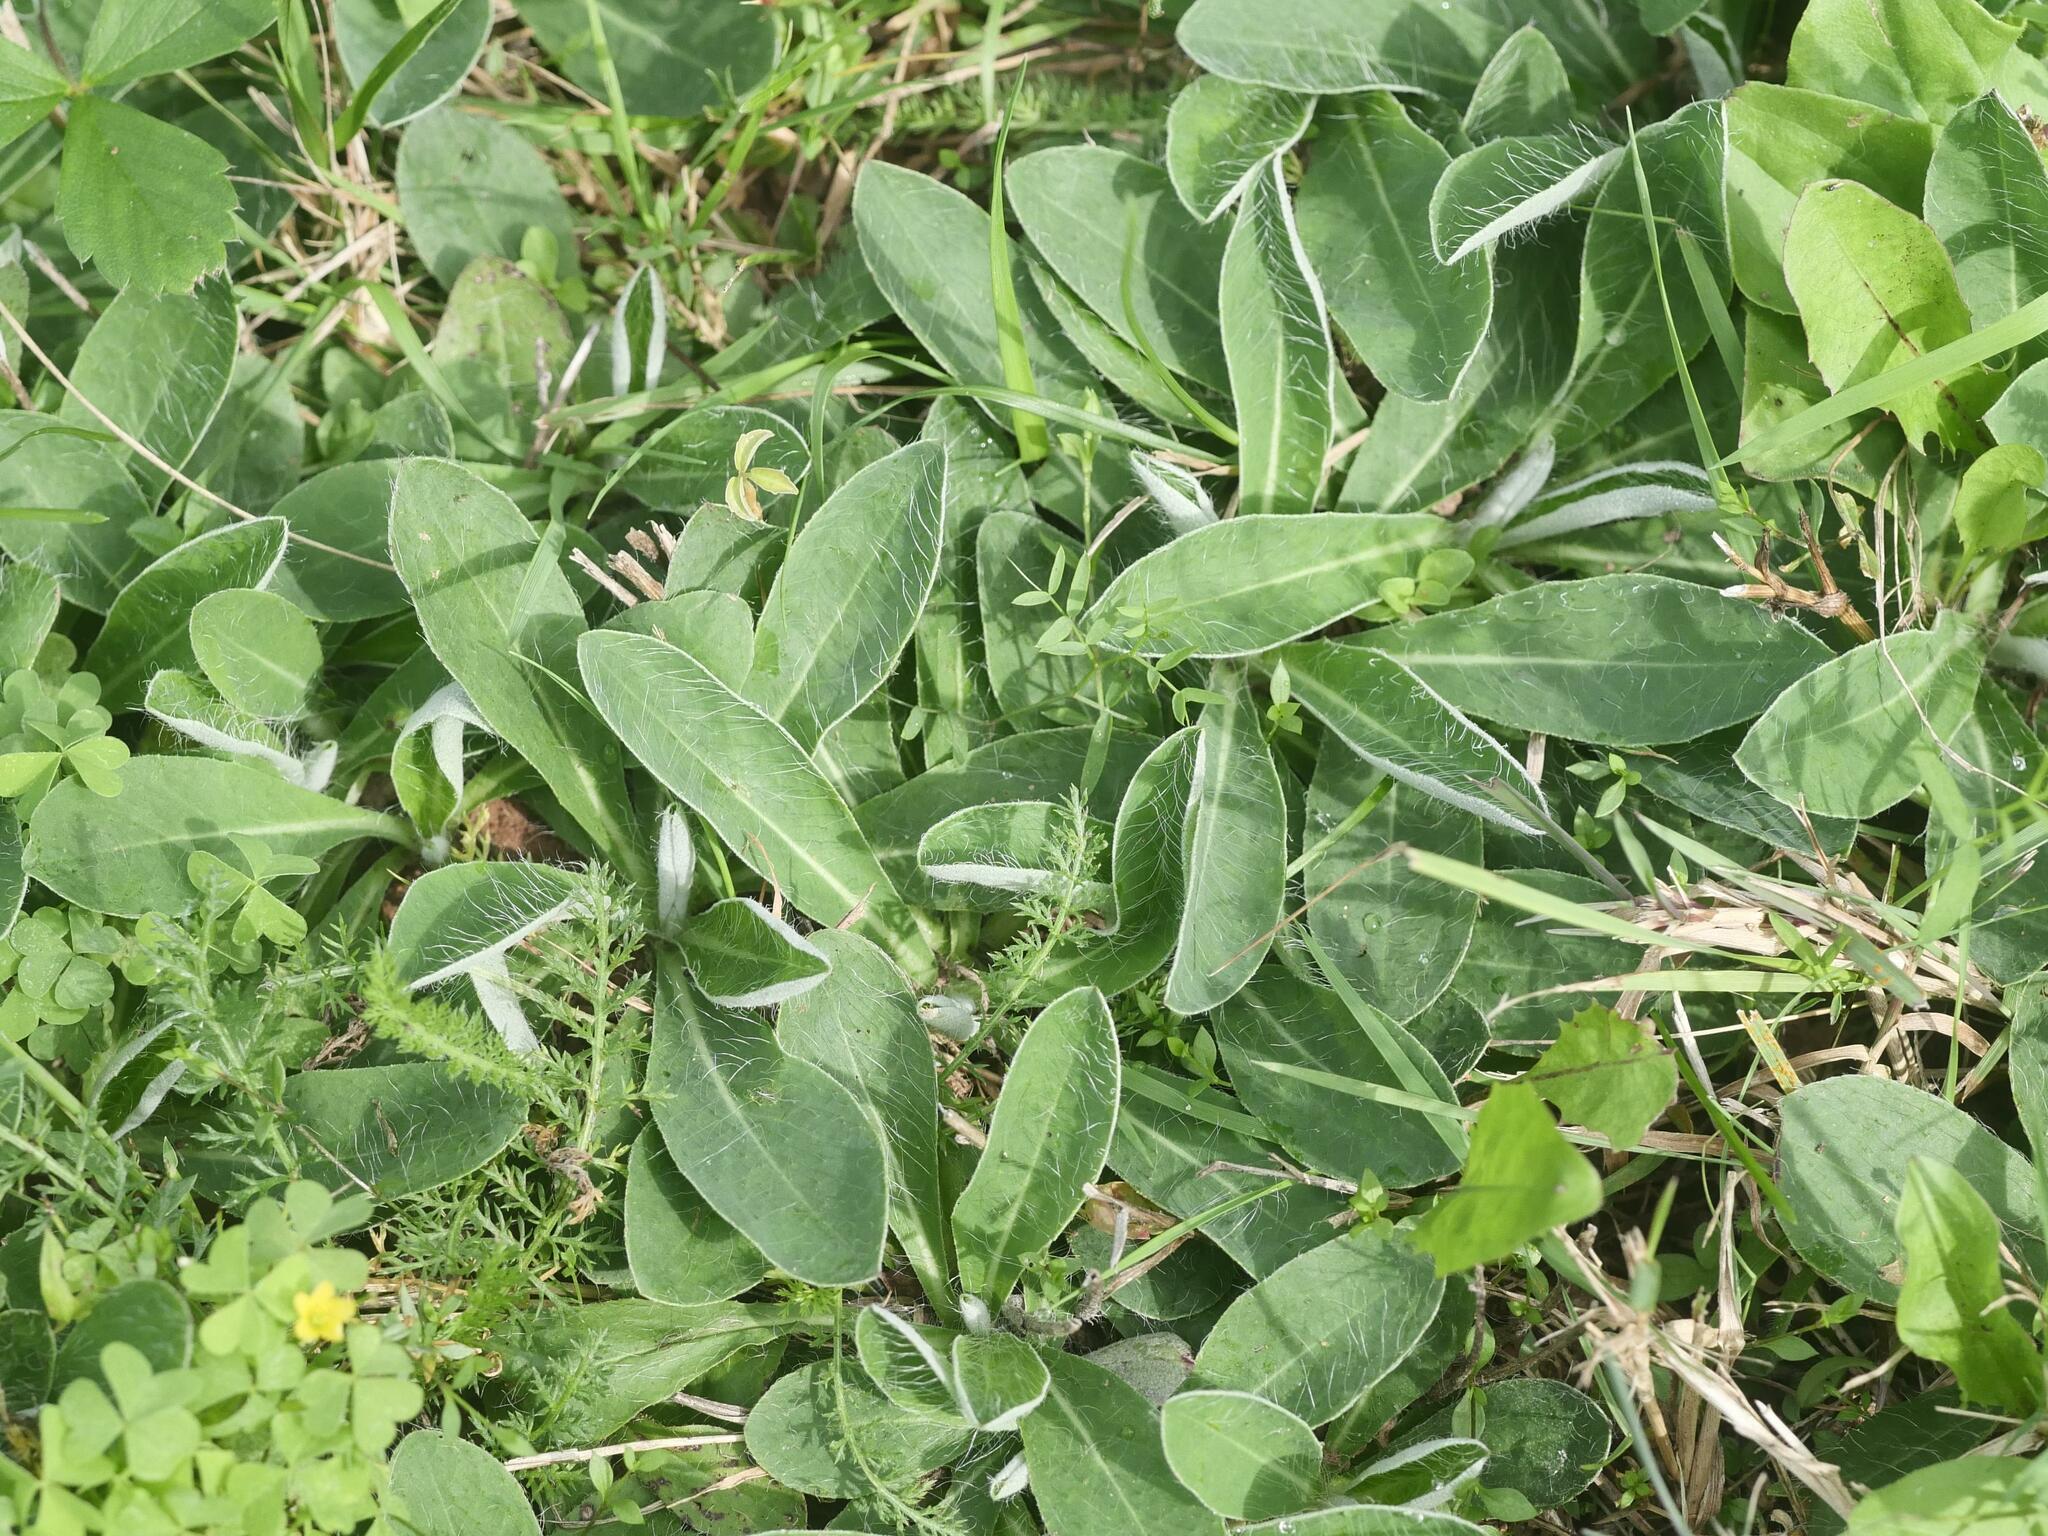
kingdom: Plantae
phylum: Tracheophyta
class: Magnoliopsida
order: Asterales
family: Asteraceae
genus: Pilosella
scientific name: Pilosella officinarum
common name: Mouse-ear hawkweed
